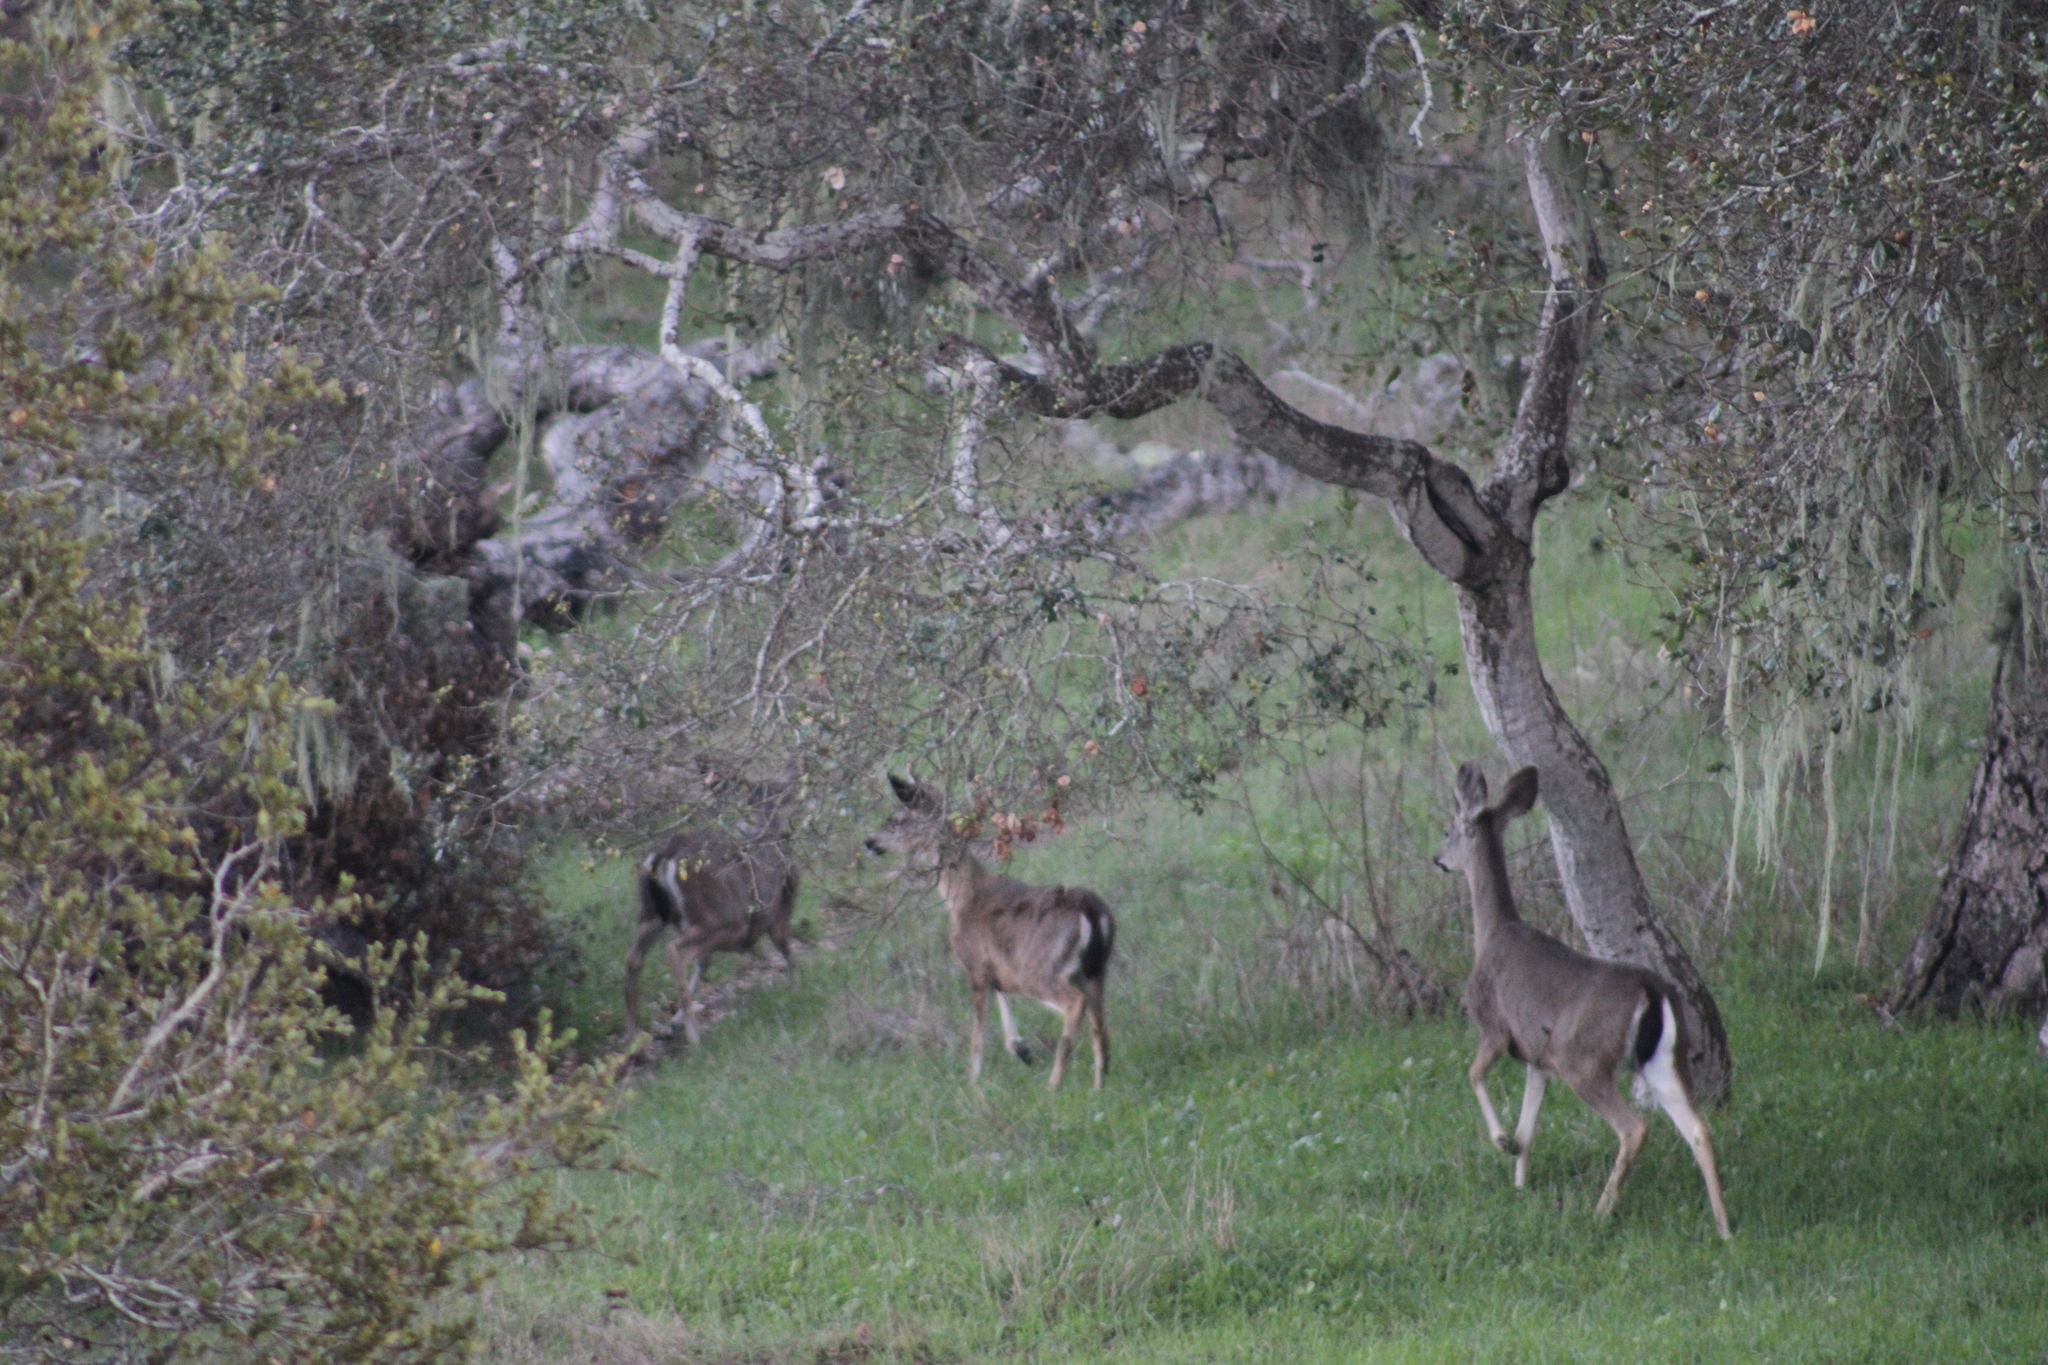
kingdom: Animalia
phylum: Chordata
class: Mammalia
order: Artiodactyla
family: Cervidae
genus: Odocoileus
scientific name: Odocoileus hemionus
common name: Mule deer
